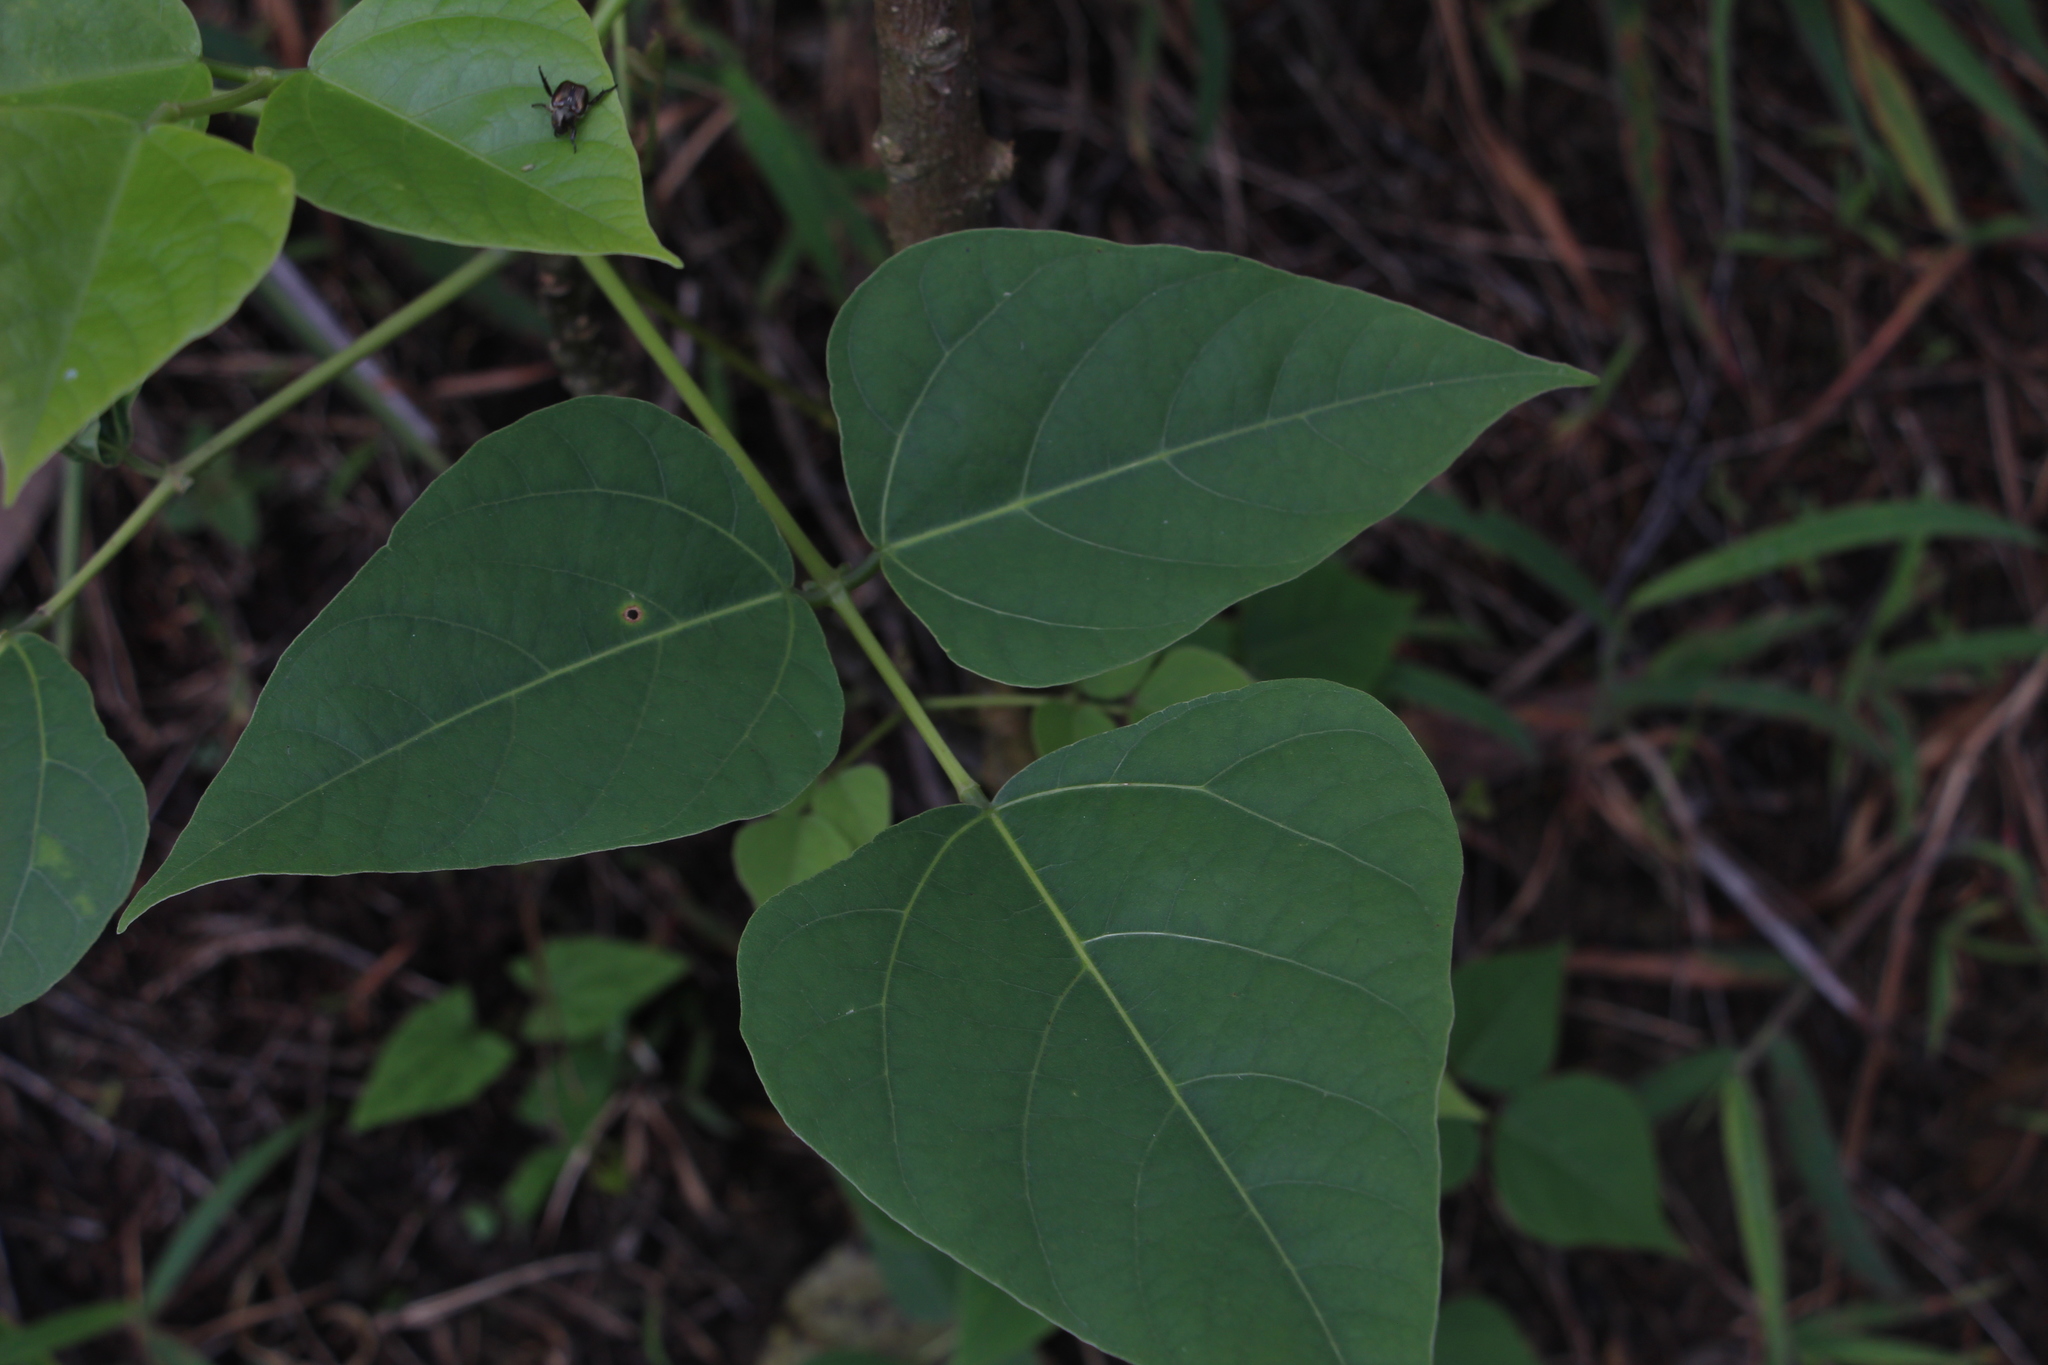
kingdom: Plantae
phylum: Tracheophyta
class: Magnoliopsida
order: Fabales
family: Fabaceae
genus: Erythrina
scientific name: Erythrina edulis
